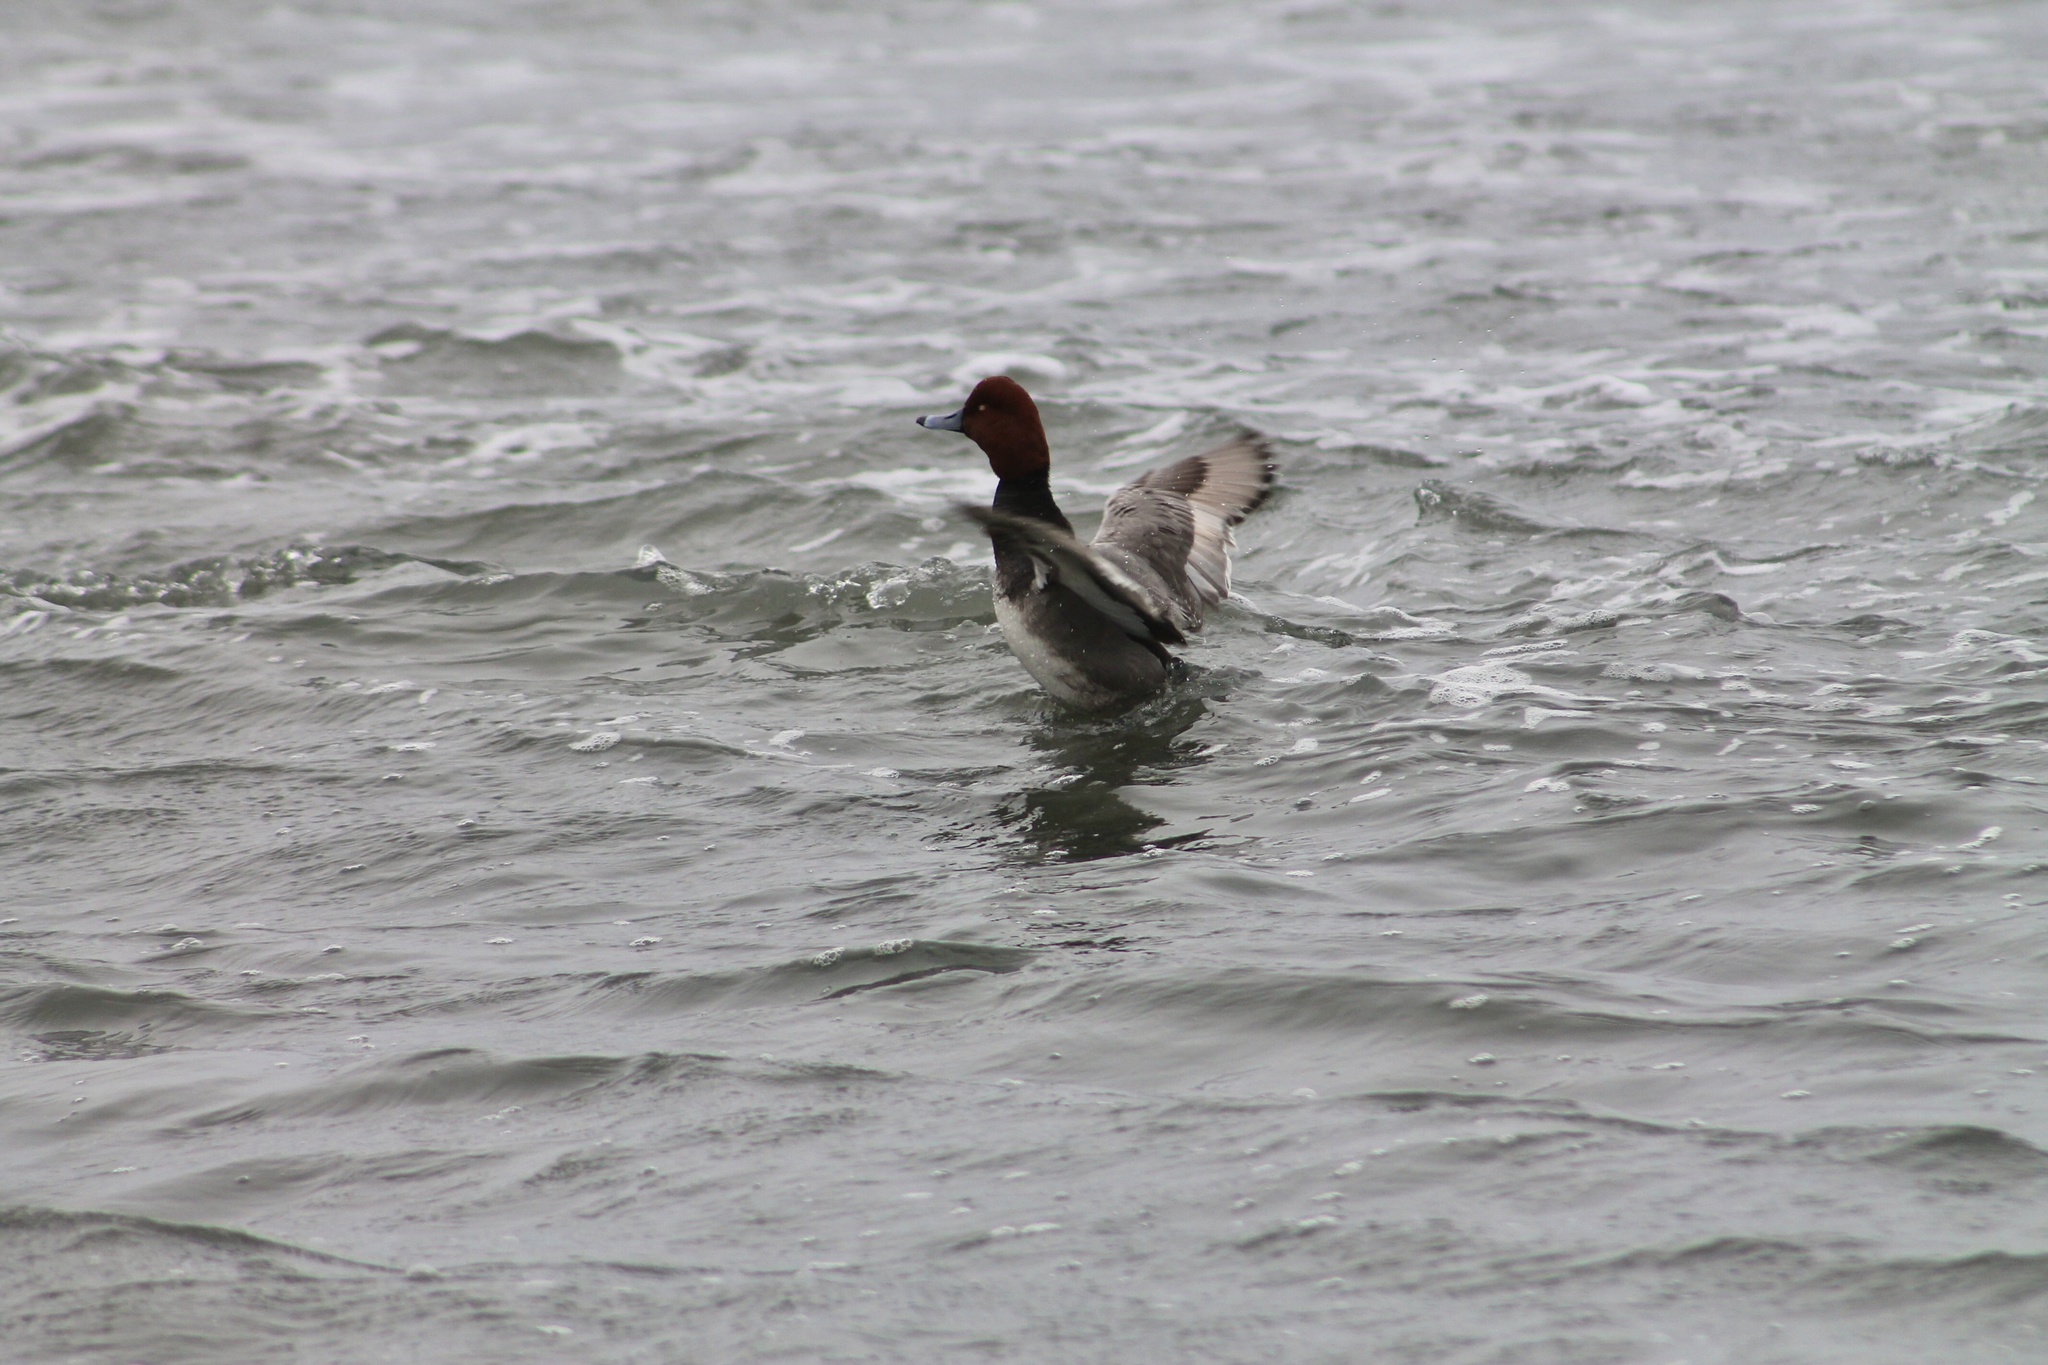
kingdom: Animalia
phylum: Chordata
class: Aves
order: Anseriformes
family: Anatidae
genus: Aythya
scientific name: Aythya americana
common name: Redhead
